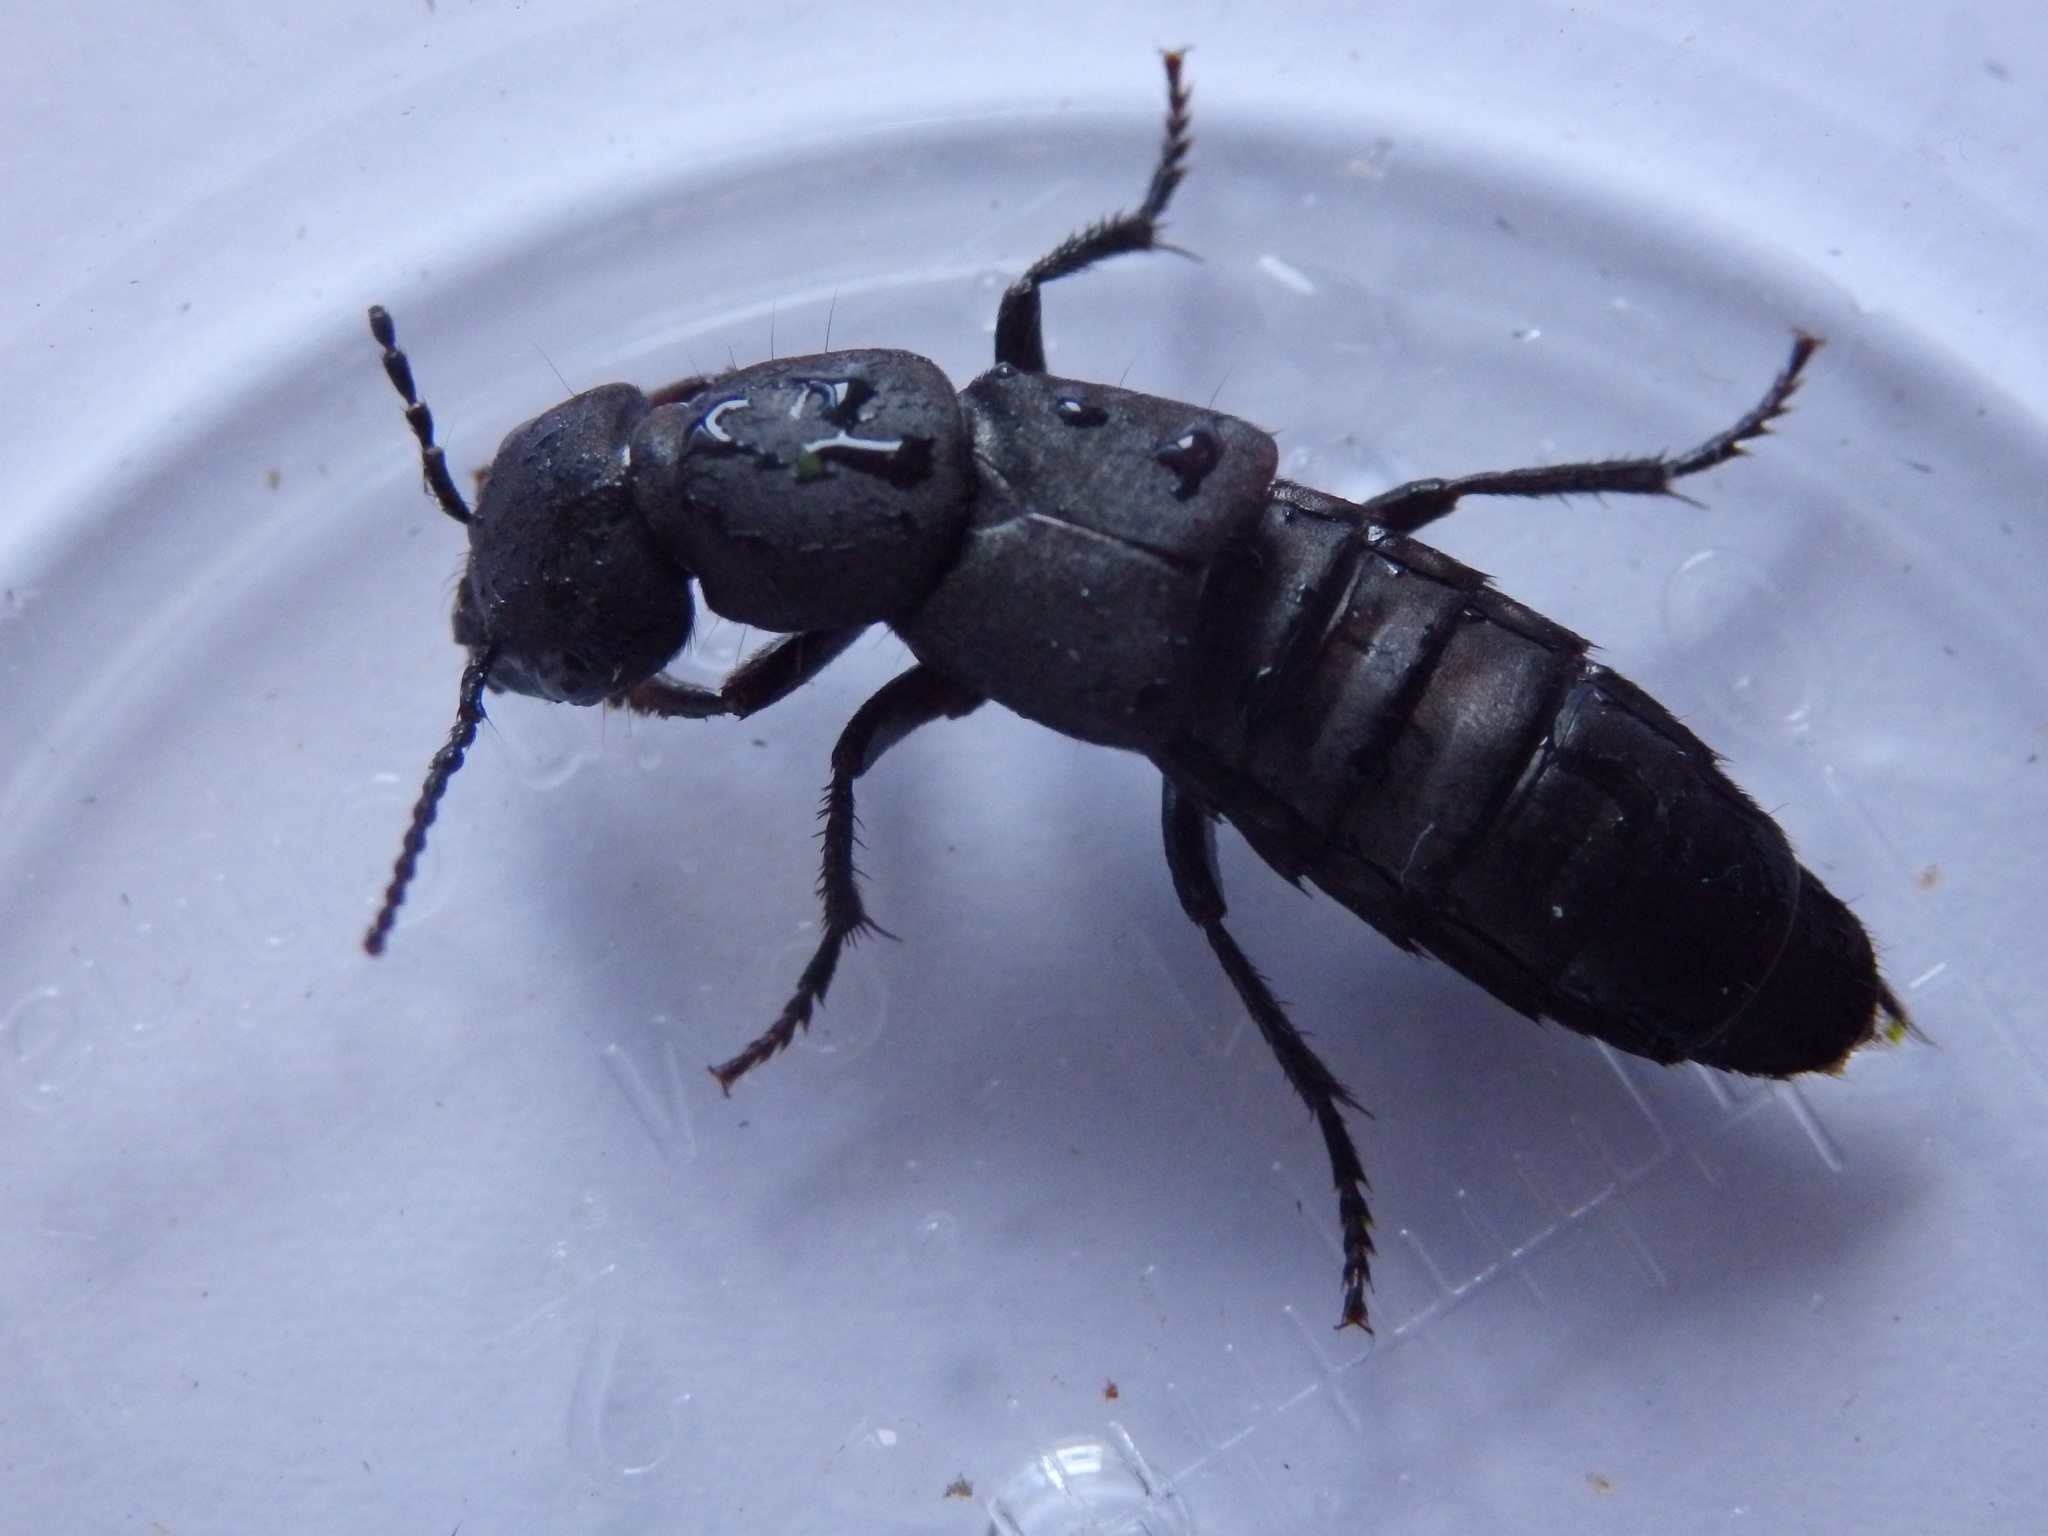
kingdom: Animalia
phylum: Arthropoda
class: Insecta
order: Coleoptera
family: Staphylinidae
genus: Ocypus
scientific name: Ocypus olens
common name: Devil's coach-horse
